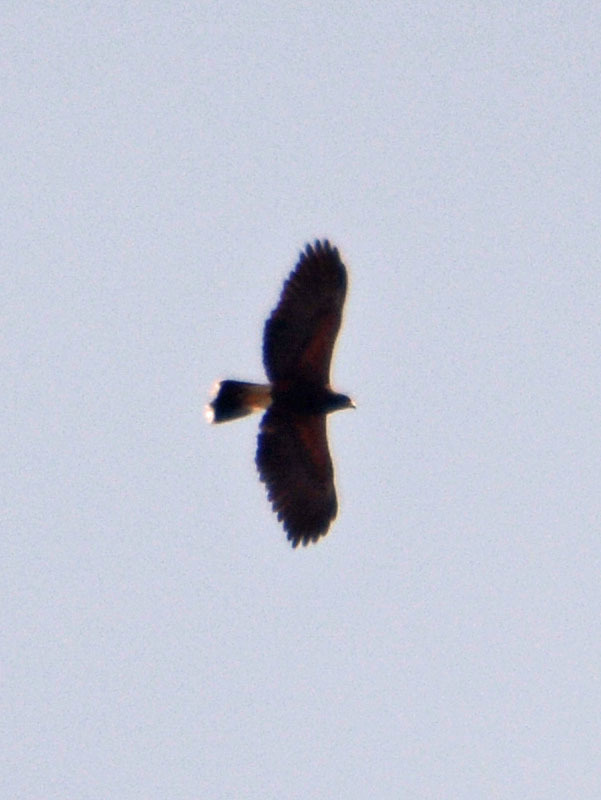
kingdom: Animalia
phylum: Chordata
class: Aves
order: Accipitriformes
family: Accipitridae
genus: Parabuteo
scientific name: Parabuteo unicinctus
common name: Harris's hawk
